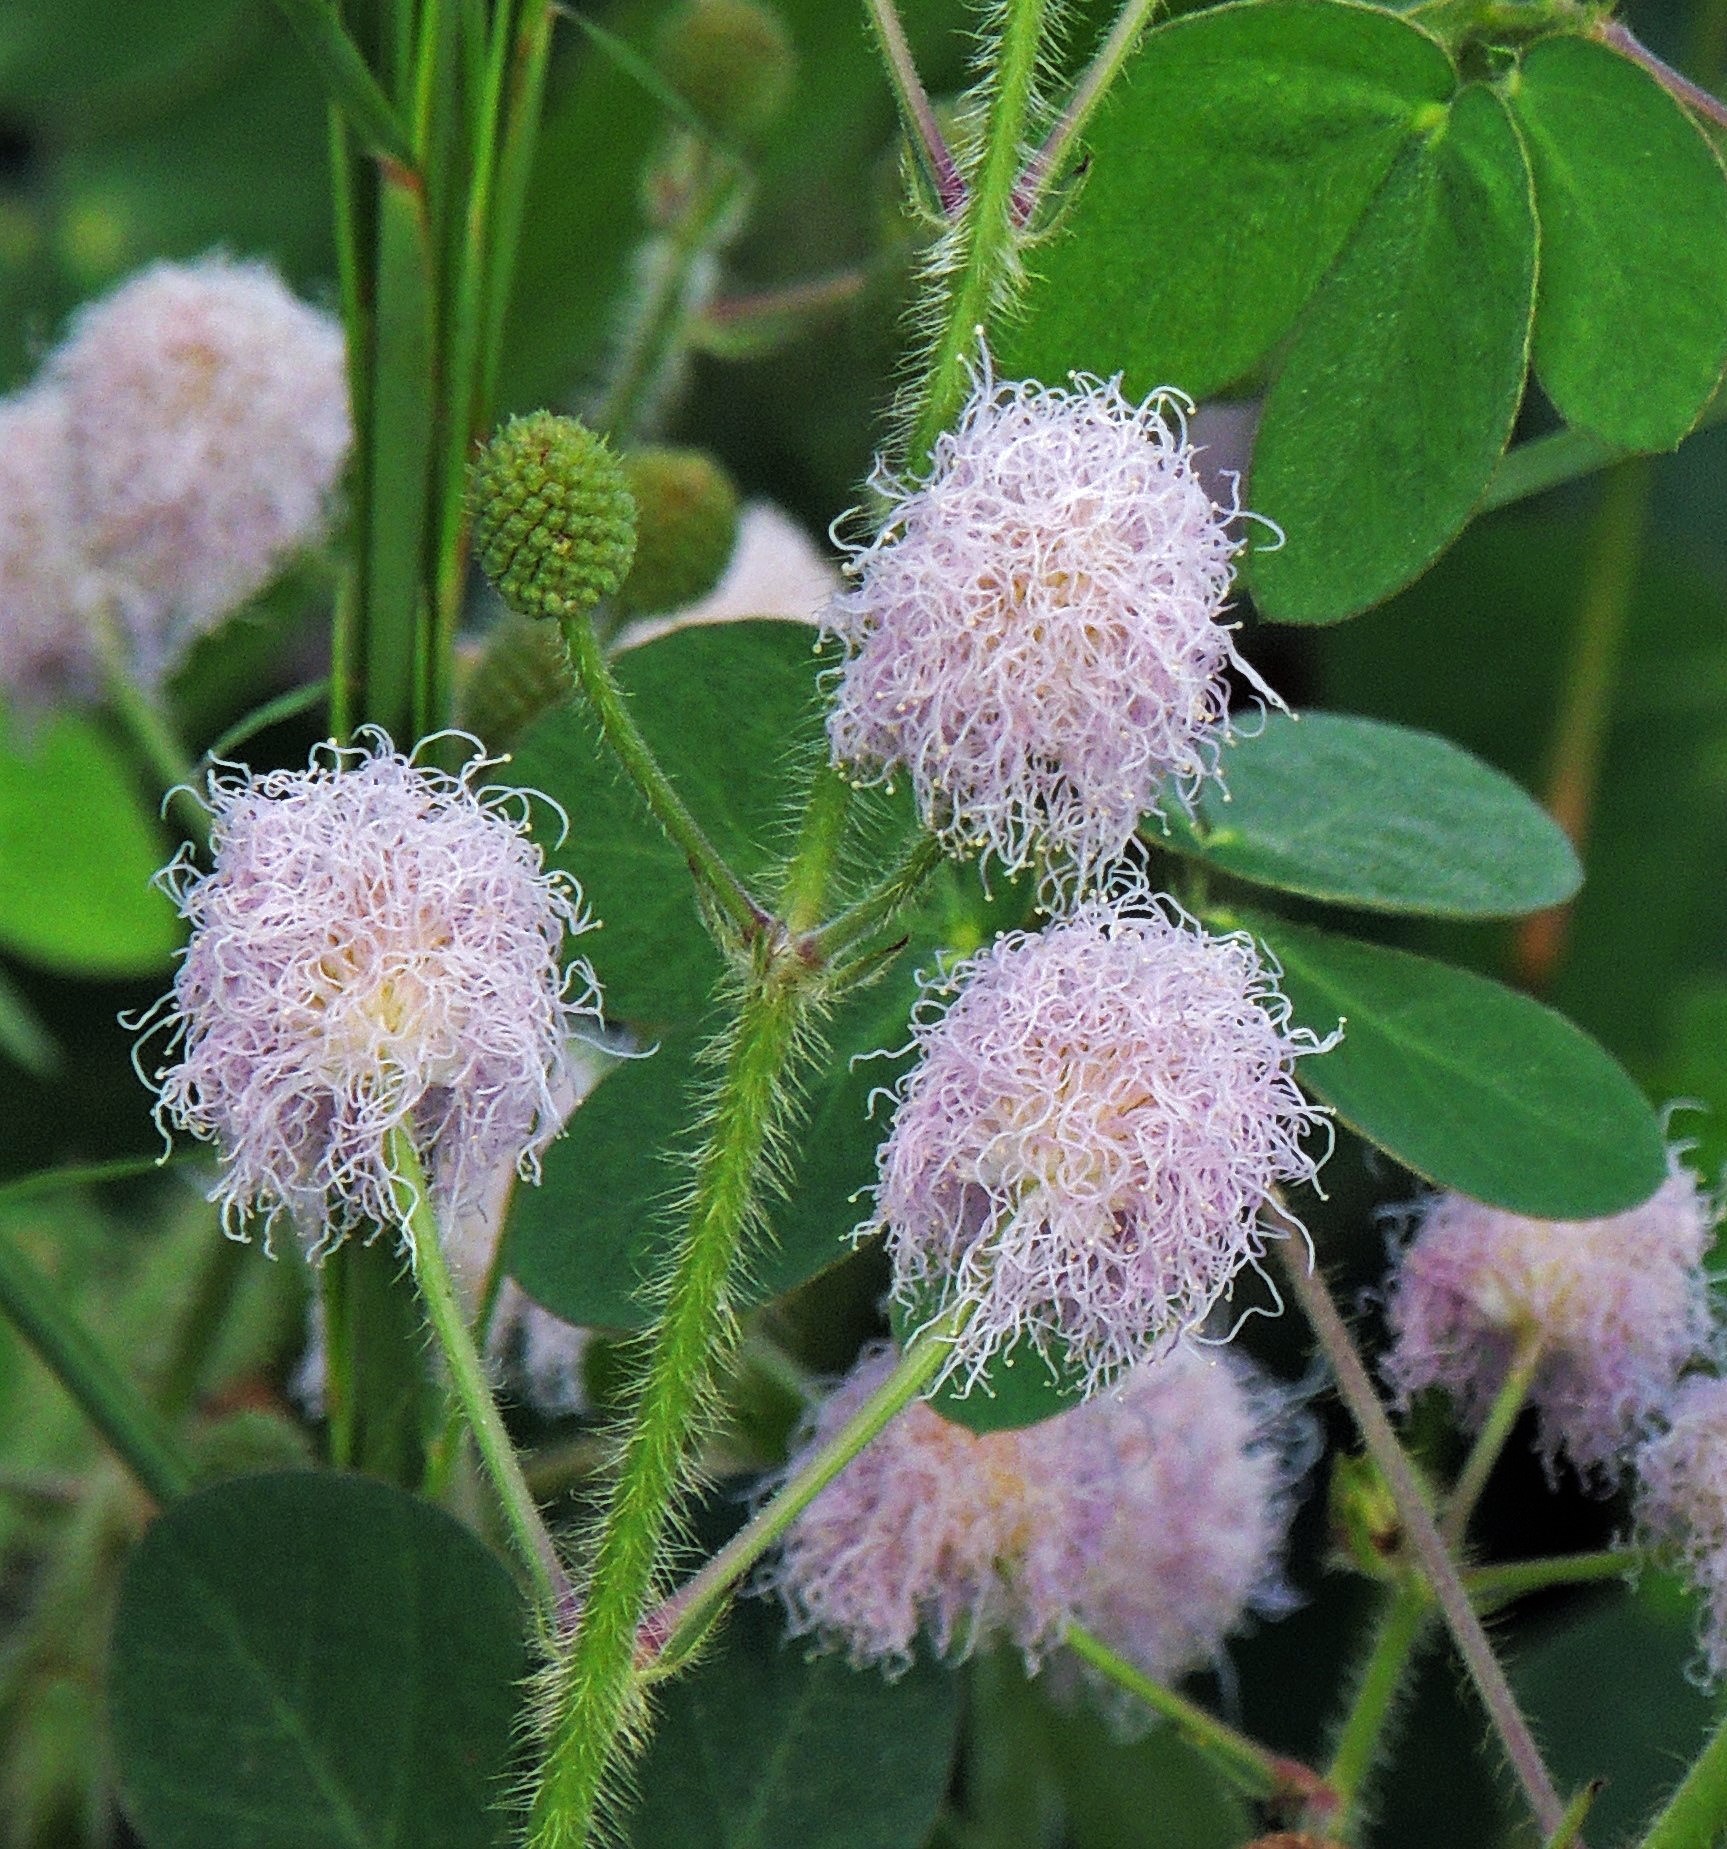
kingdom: Plantae
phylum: Tracheophyta
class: Magnoliopsida
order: Fabales
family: Fabaceae
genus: Mimosa
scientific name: Mimosa debilis
